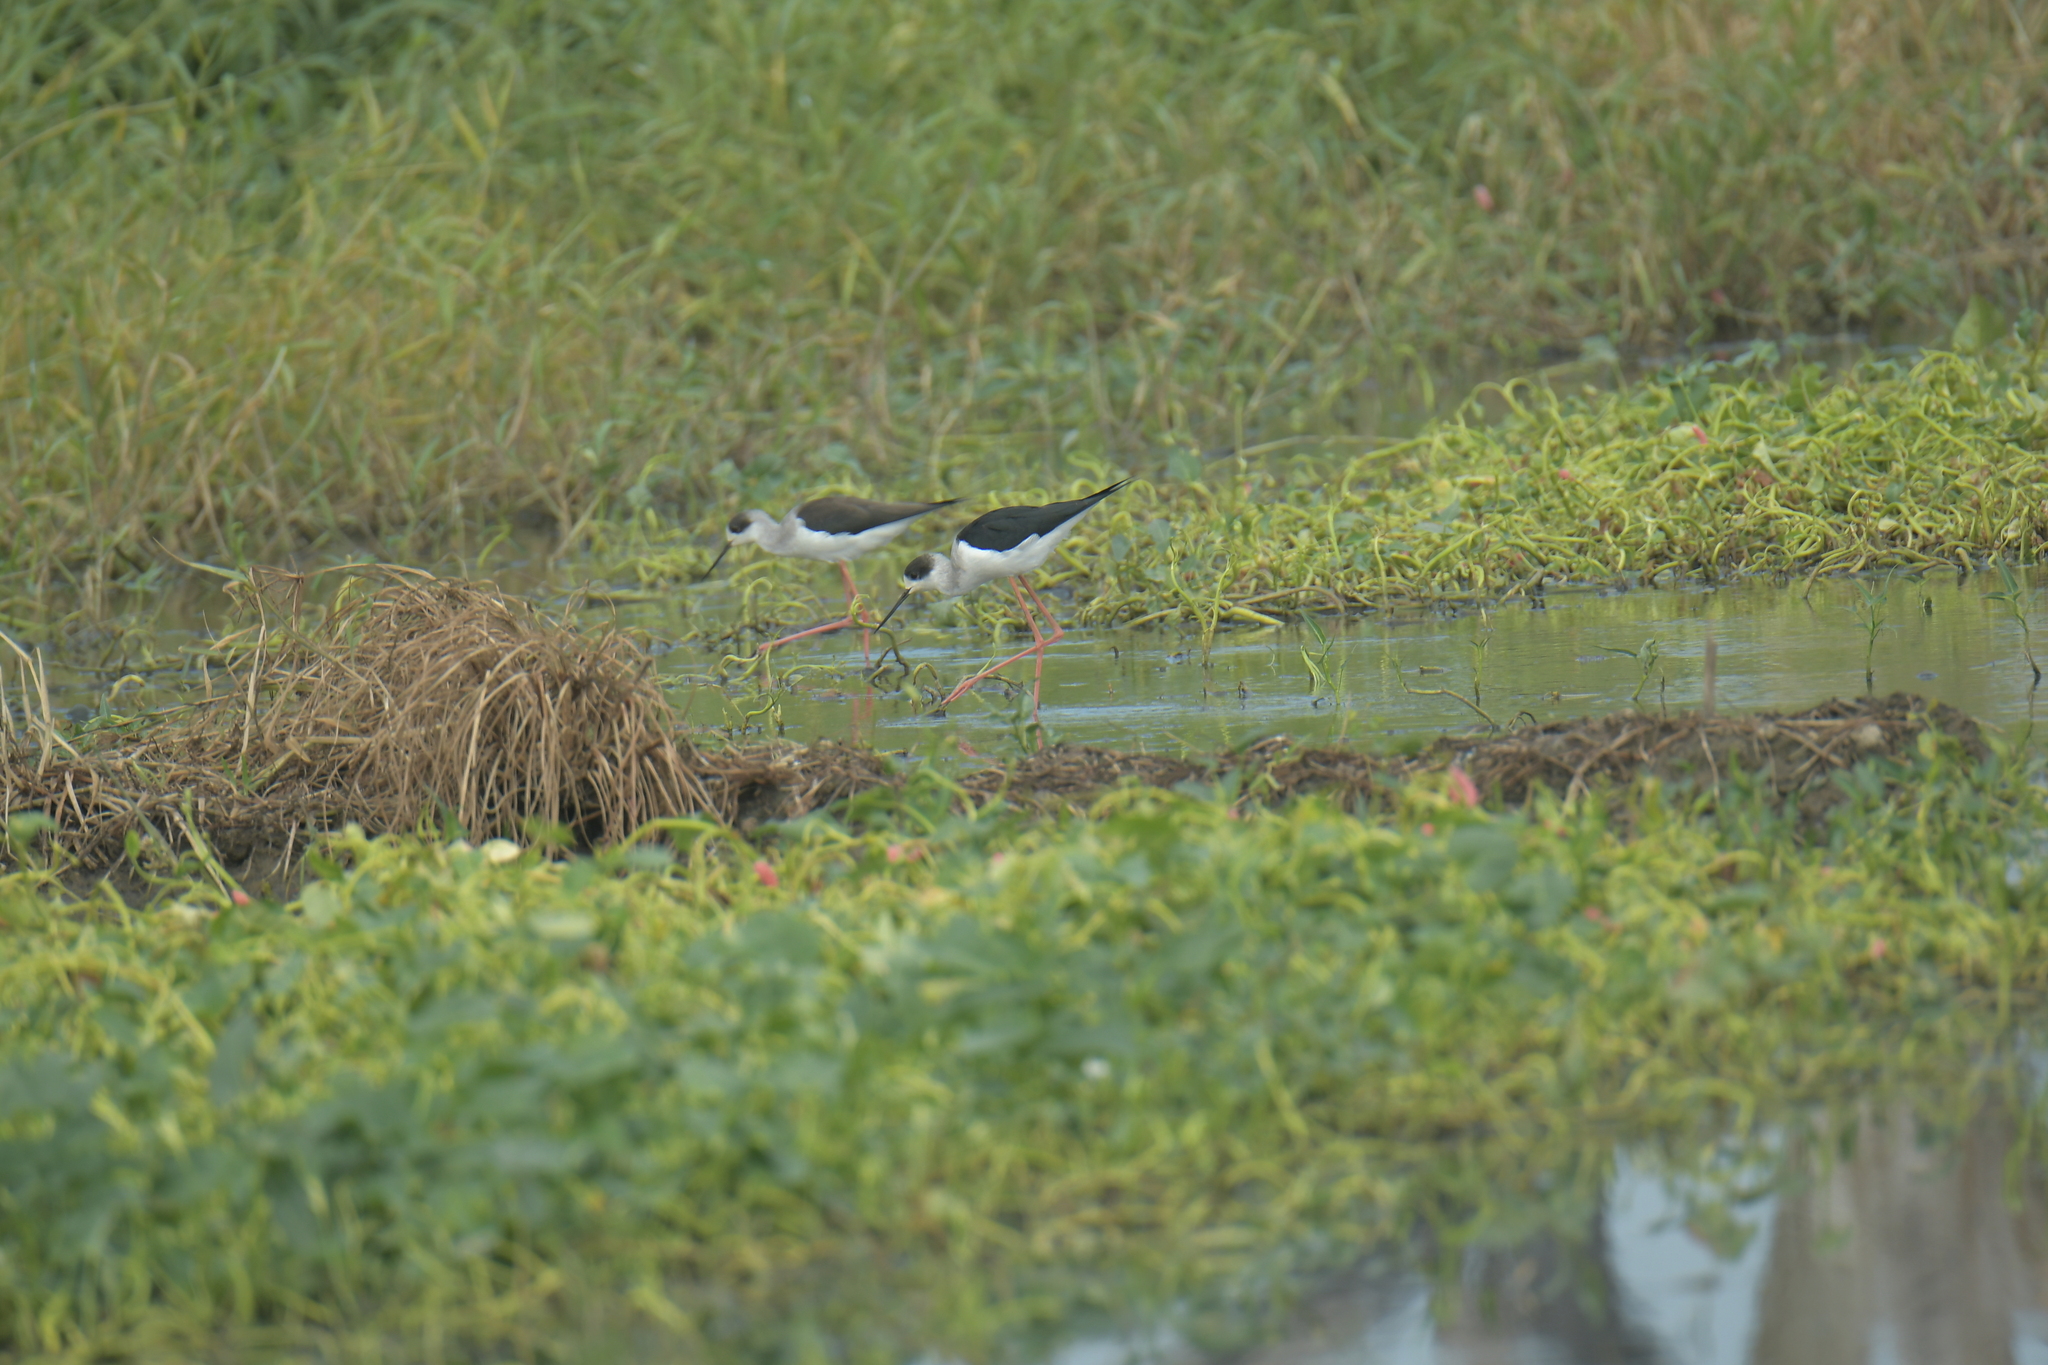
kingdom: Animalia
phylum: Chordata
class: Aves
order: Charadriiformes
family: Recurvirostridae
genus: Himantopus
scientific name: Himantopus himantopus
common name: Black-winged stilt
